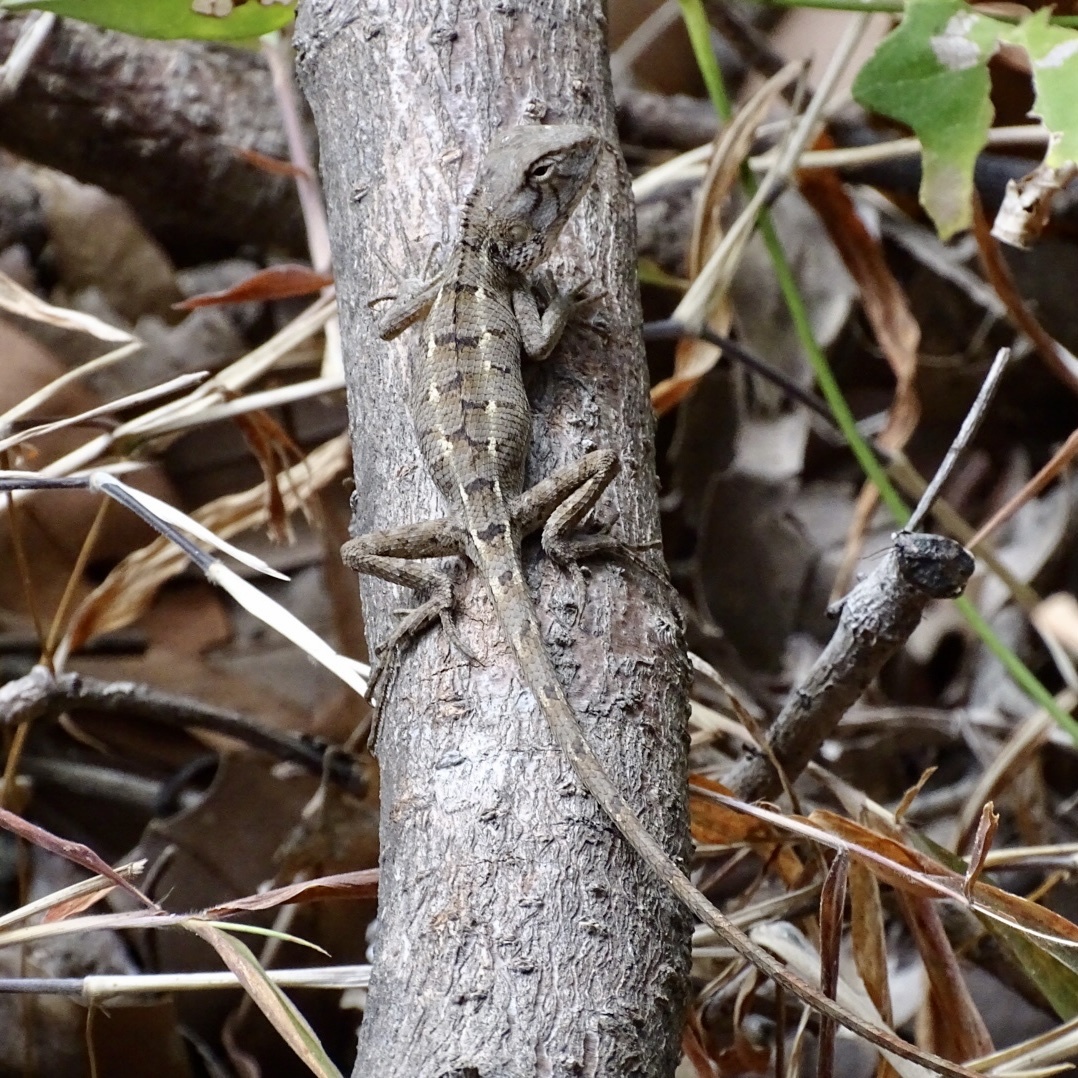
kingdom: Animalia
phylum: Chordata
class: Squamata
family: Agamidae
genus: Calotes
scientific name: Calotes versicolor
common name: Oriental garden lizard
